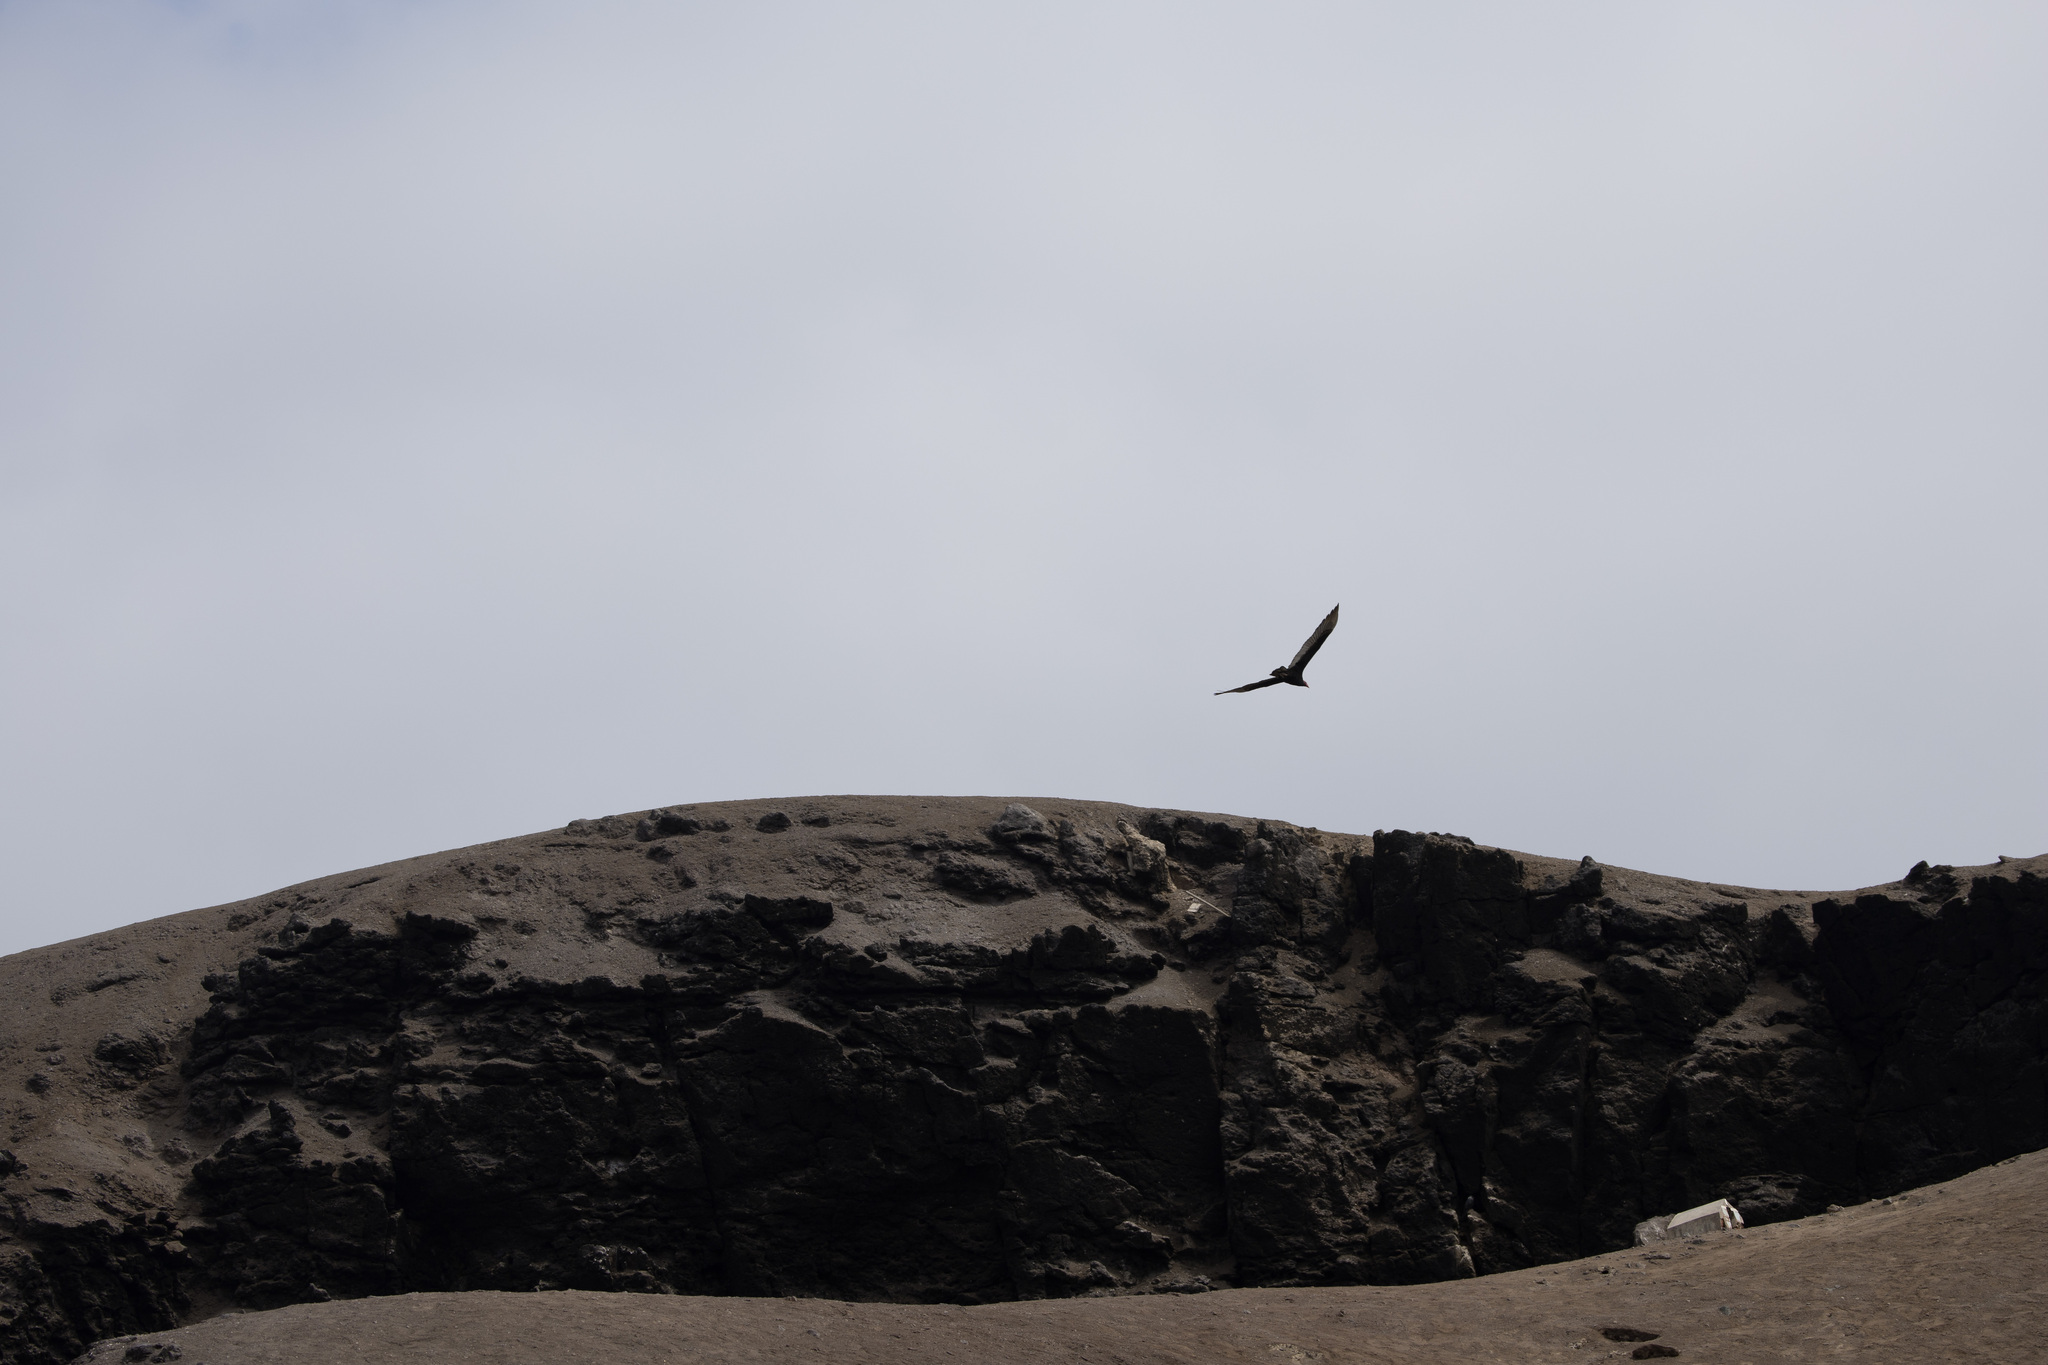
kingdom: Animalia
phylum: Chordata
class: Aves
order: Accipitriformes
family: Cathartidae
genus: Cathartes
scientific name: Cathartes aura
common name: Turkey vulture
